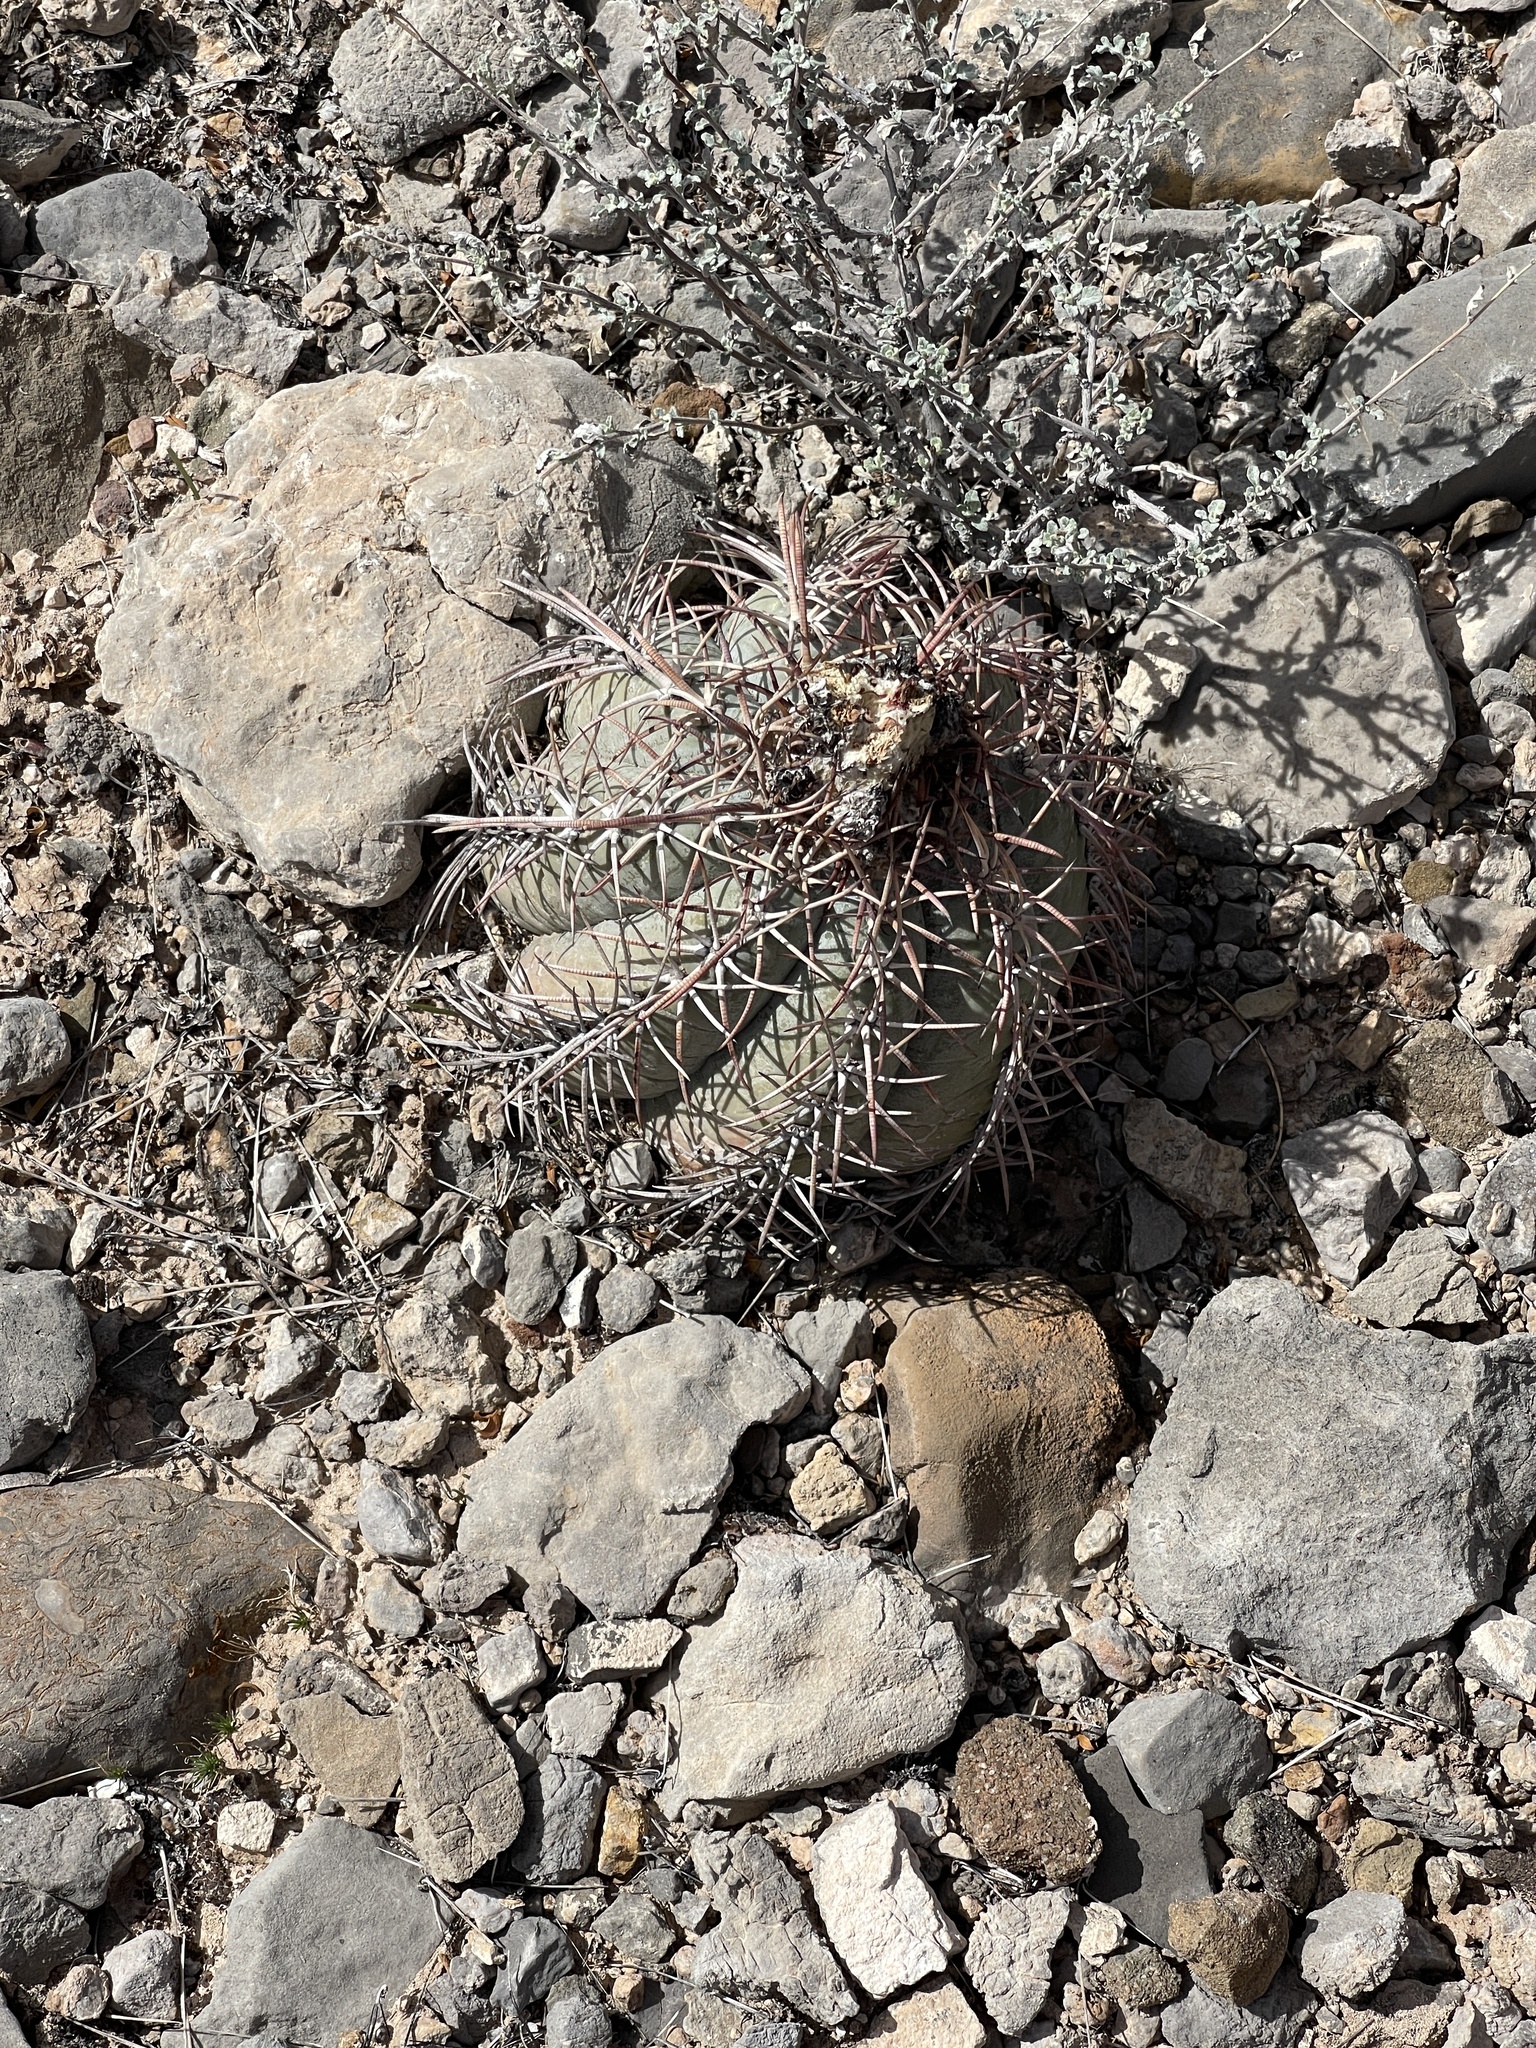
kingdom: Plantae
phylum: Tracheophyta
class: Magnoliopsida
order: Caryophyllales
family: Cactaceae
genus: Echinocactus
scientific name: Echinocactus horizonthalonius
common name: Devilshead
